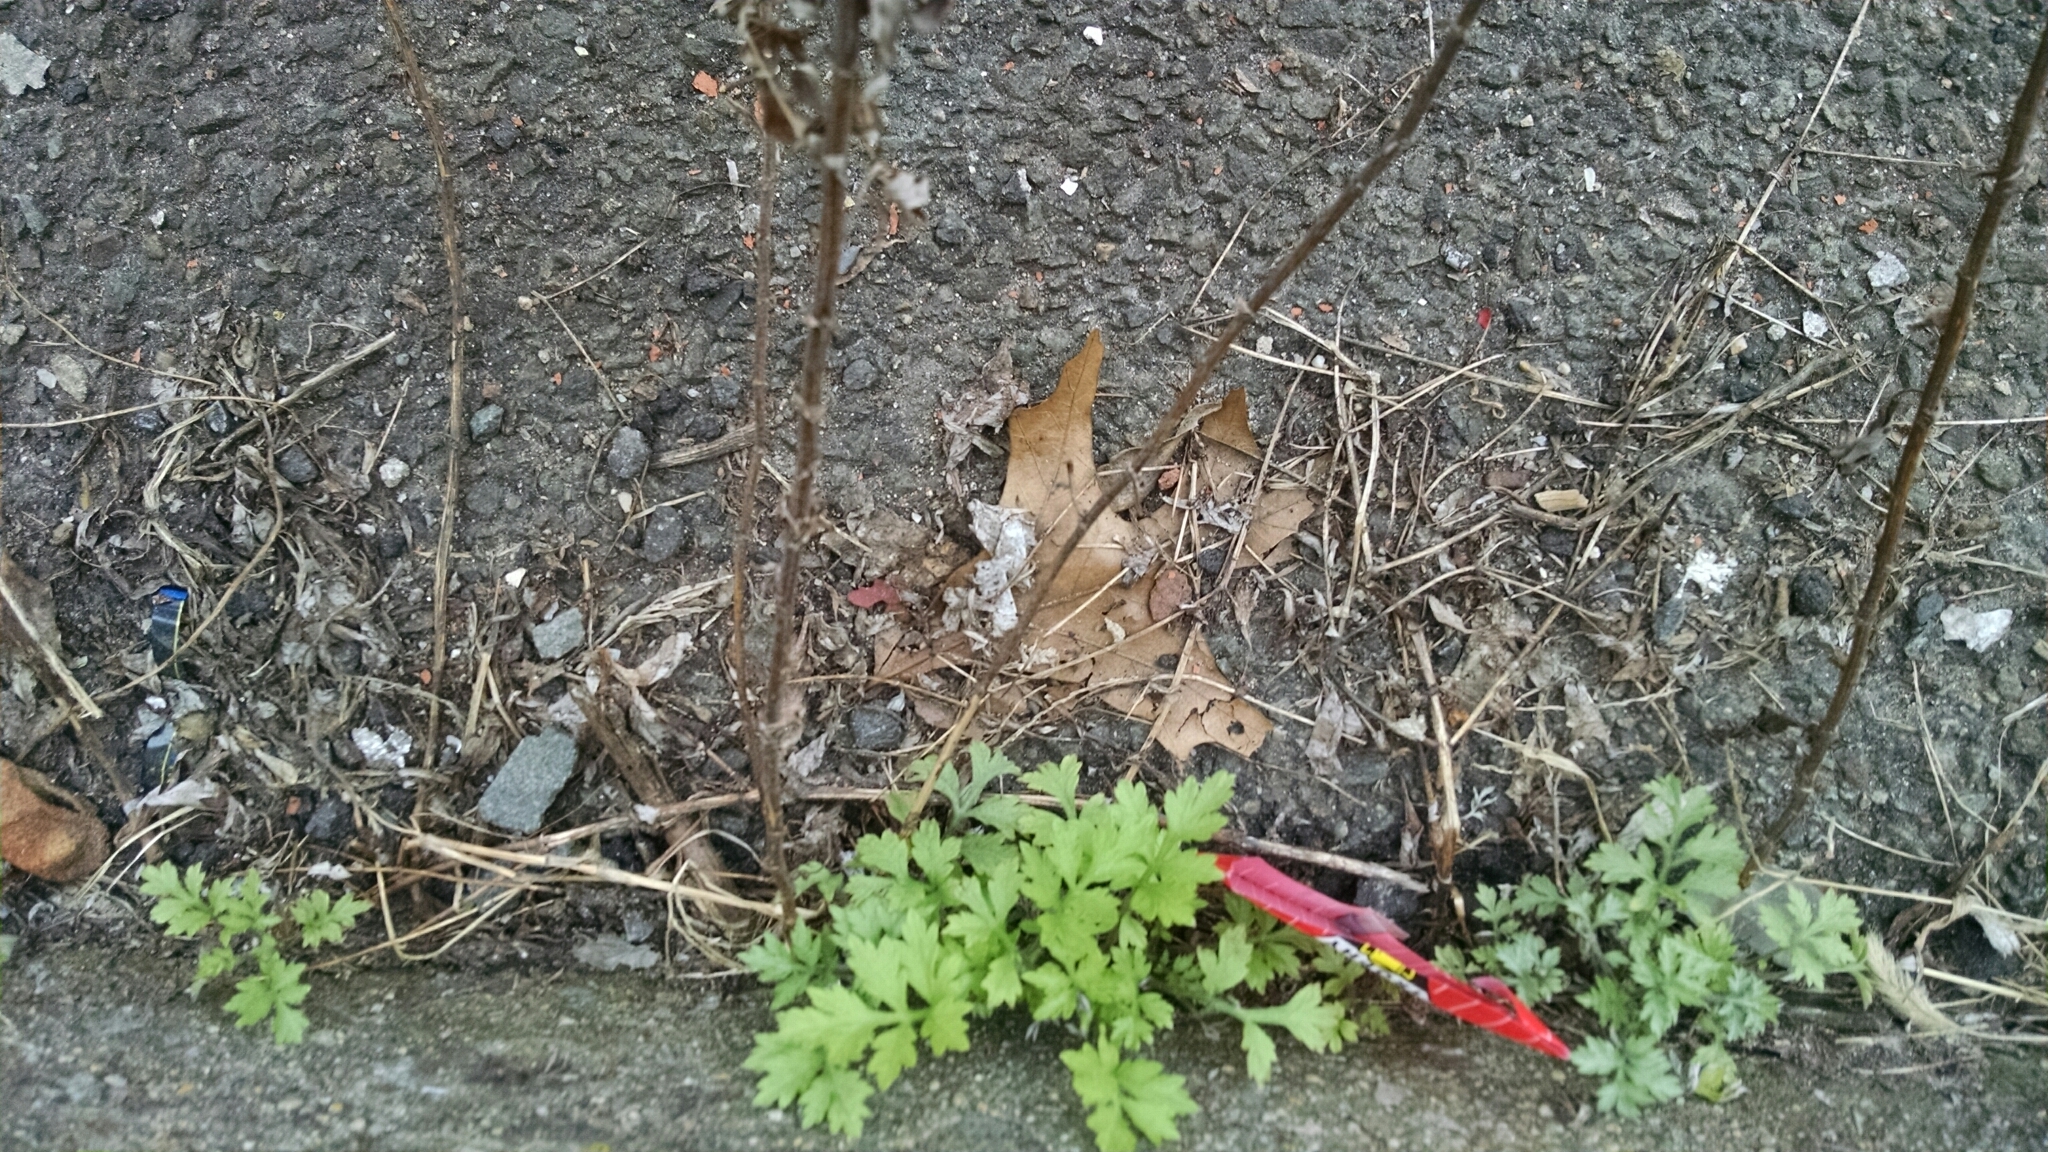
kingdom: Plantae
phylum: Tracheophyta
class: Magnoliopsida
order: Asterales
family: Asteraceae
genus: Artemisia
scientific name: Artemisia vulgaris
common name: Mugwort
